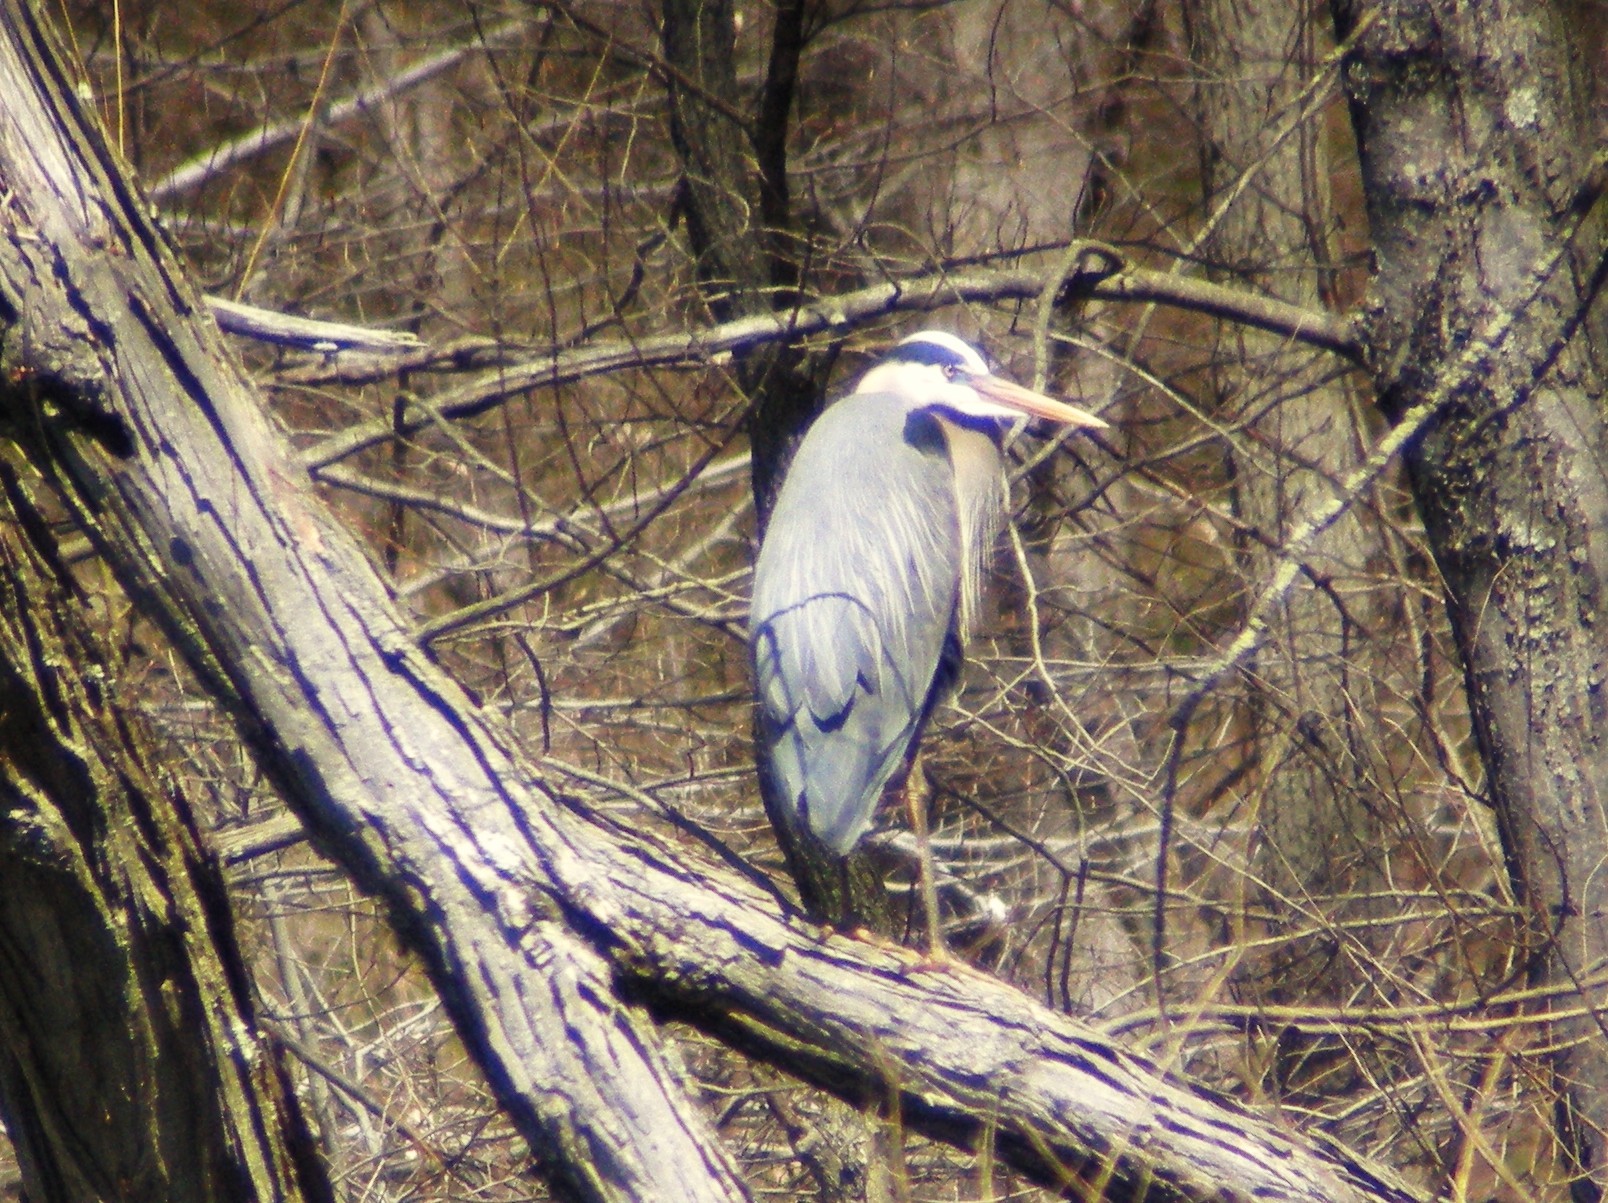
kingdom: Animalia
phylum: Chordata
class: Aves
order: Pelecaniformes
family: Ardeidae
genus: Ardea
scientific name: Ardea herodias
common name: Great blue heron
